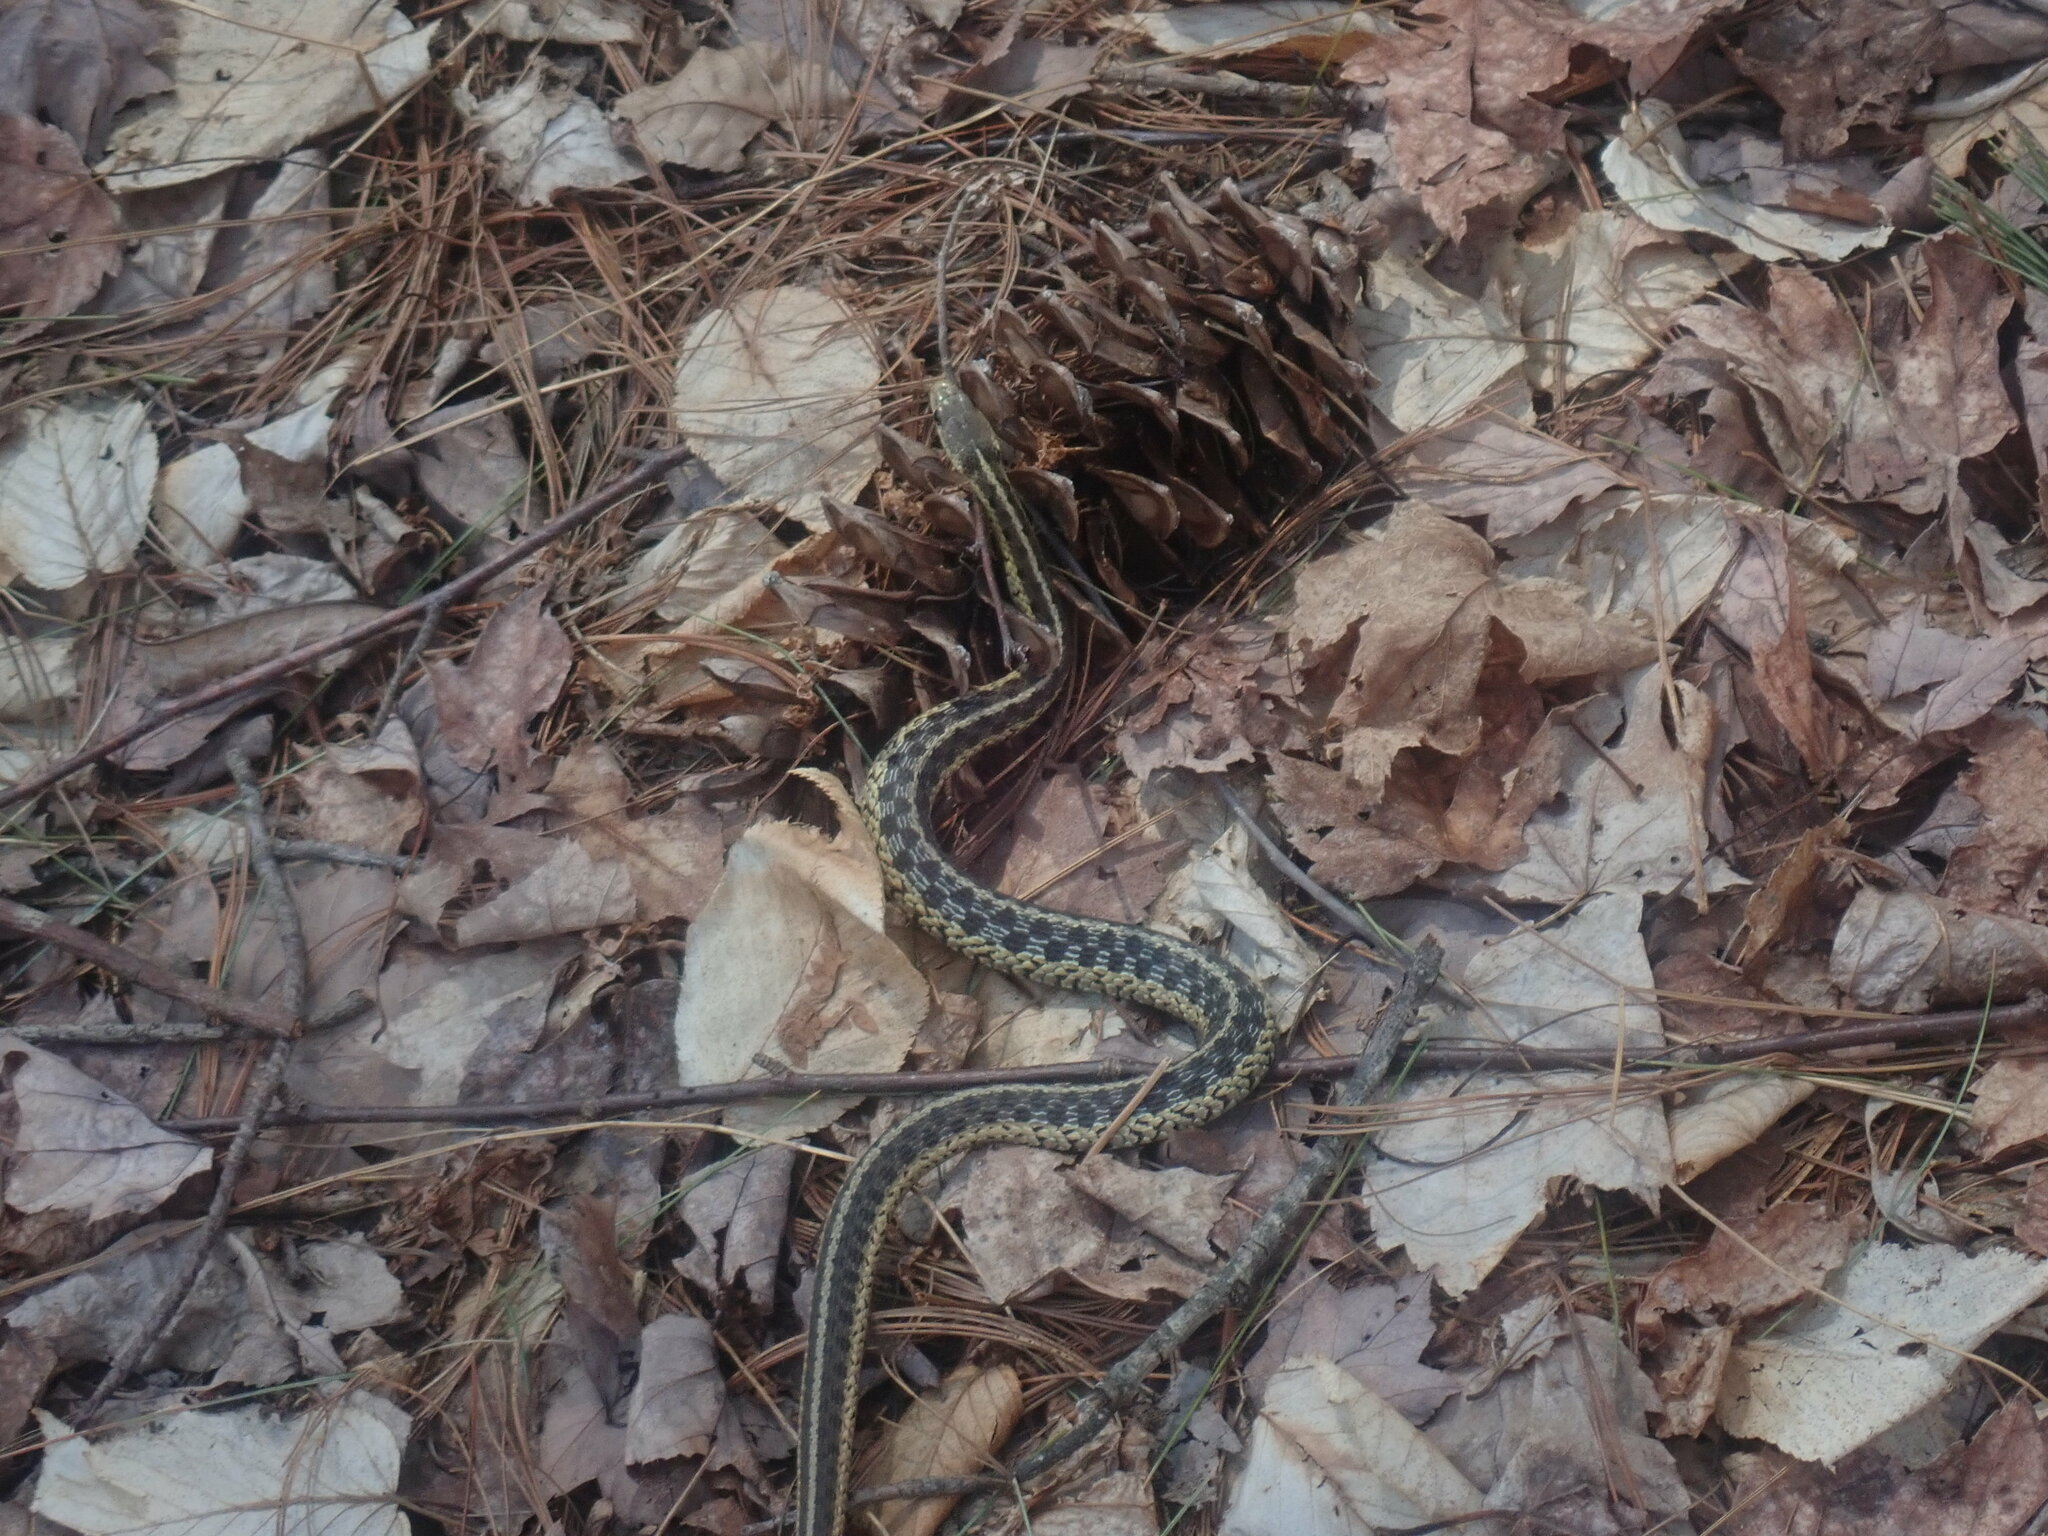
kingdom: Animalia
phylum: Chordata
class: Squamata
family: Colubridae
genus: Thamnophis
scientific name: Thamnophis sirtalis
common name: Common garter snake
